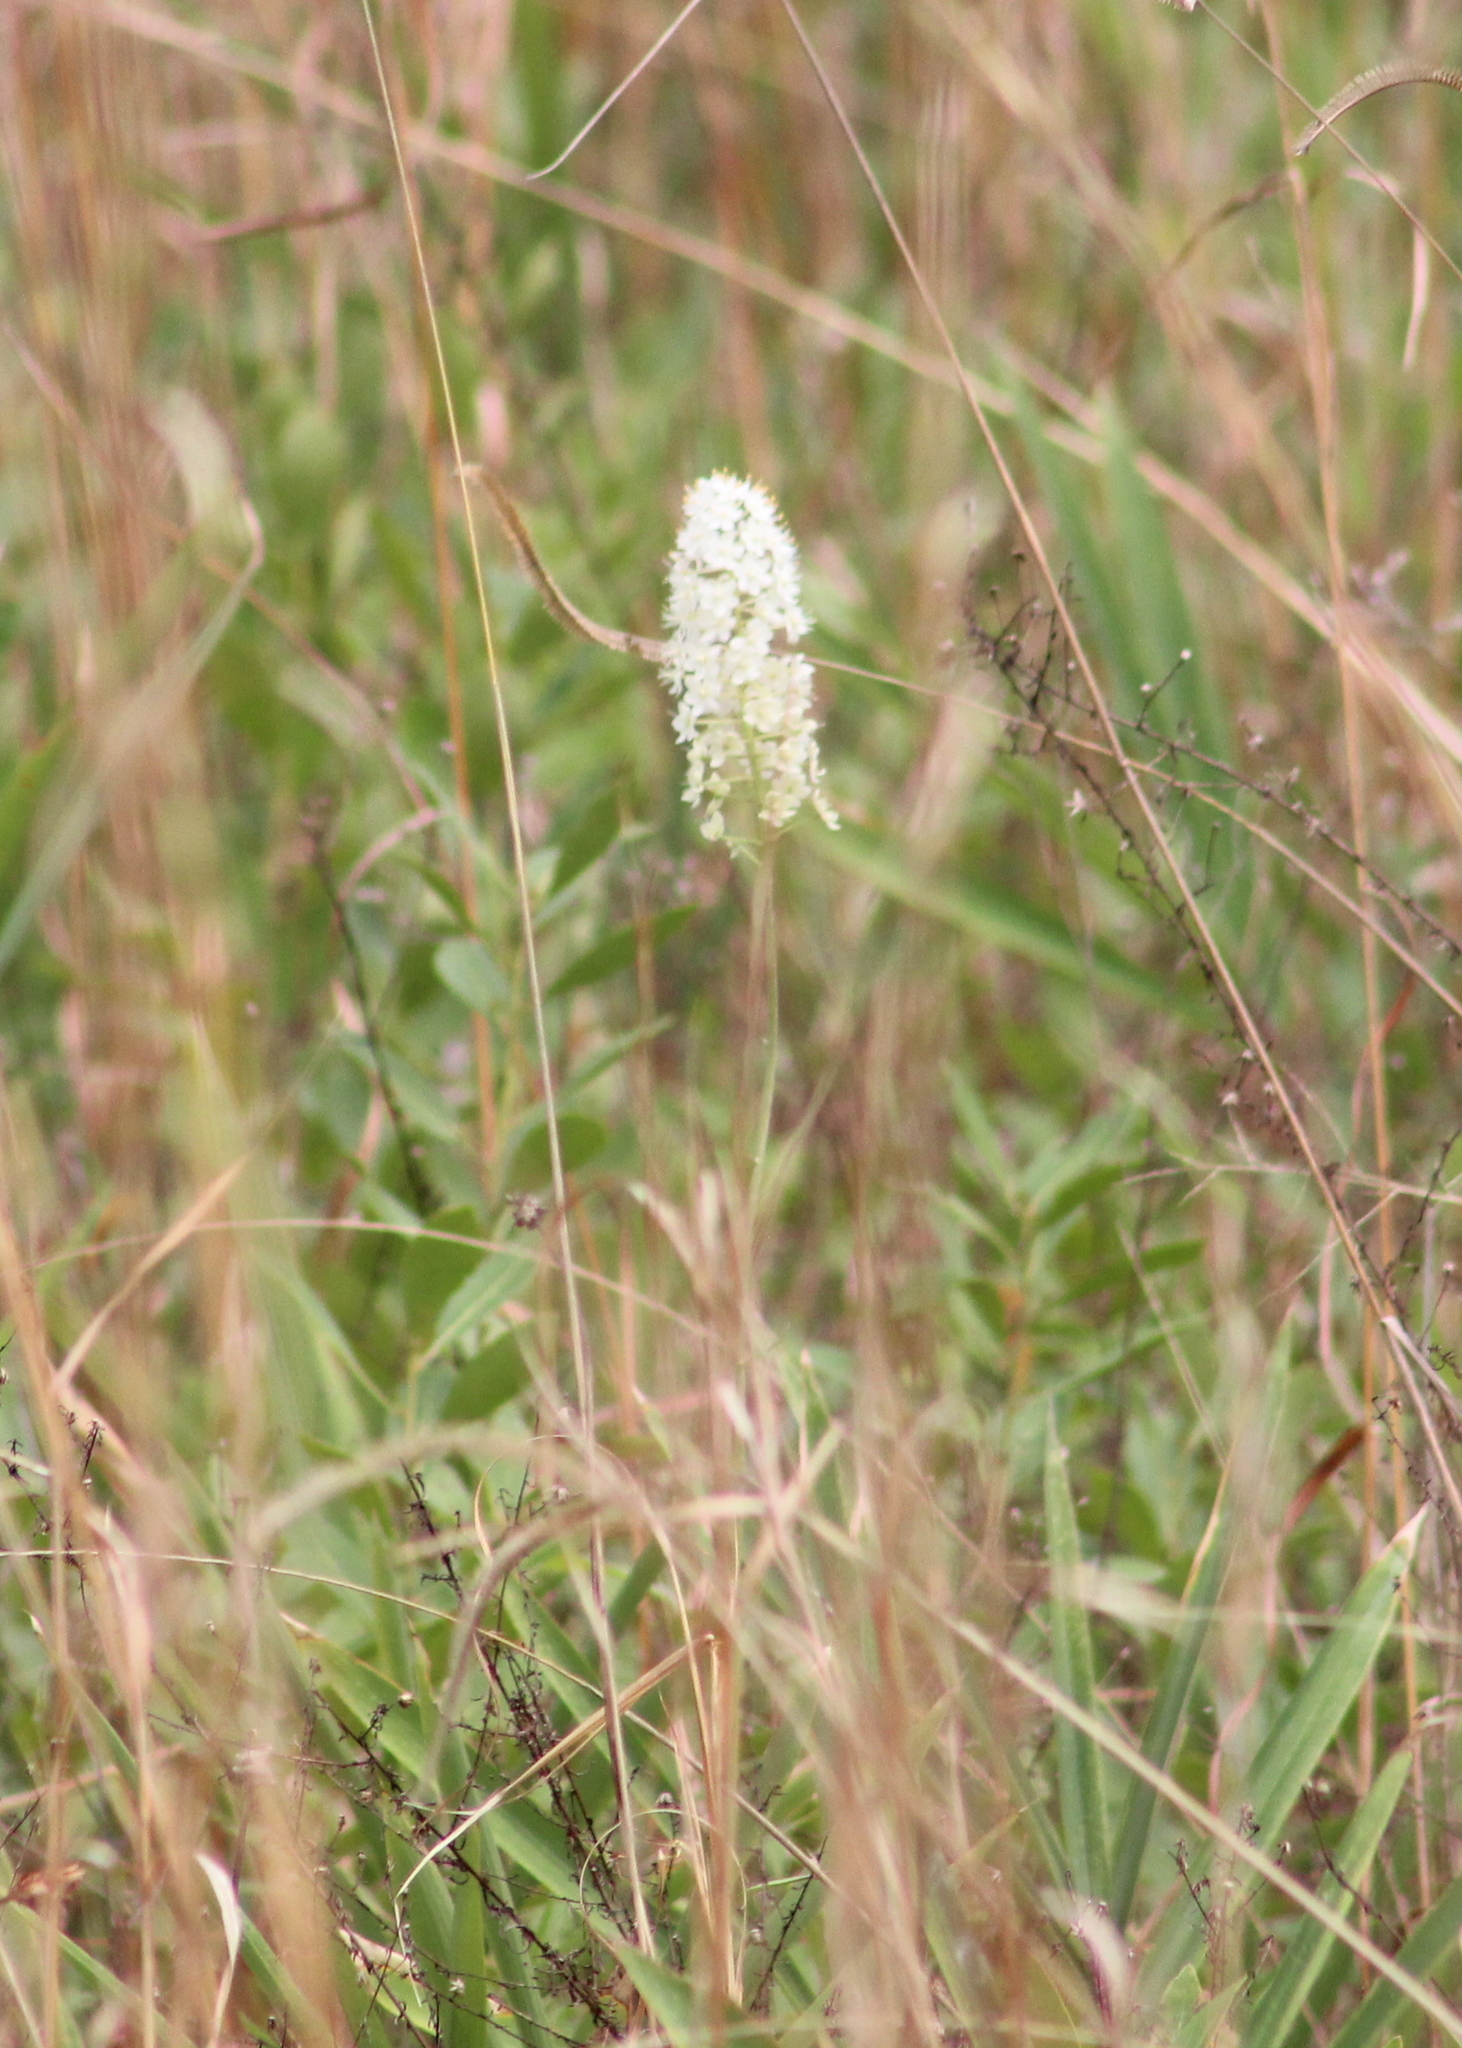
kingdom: Plantae
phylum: Tracheophyta
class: Liliopsida
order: Liliales
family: Melanthiaceae
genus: Stenanthium
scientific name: Stenanthium densum
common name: Crow-poison
